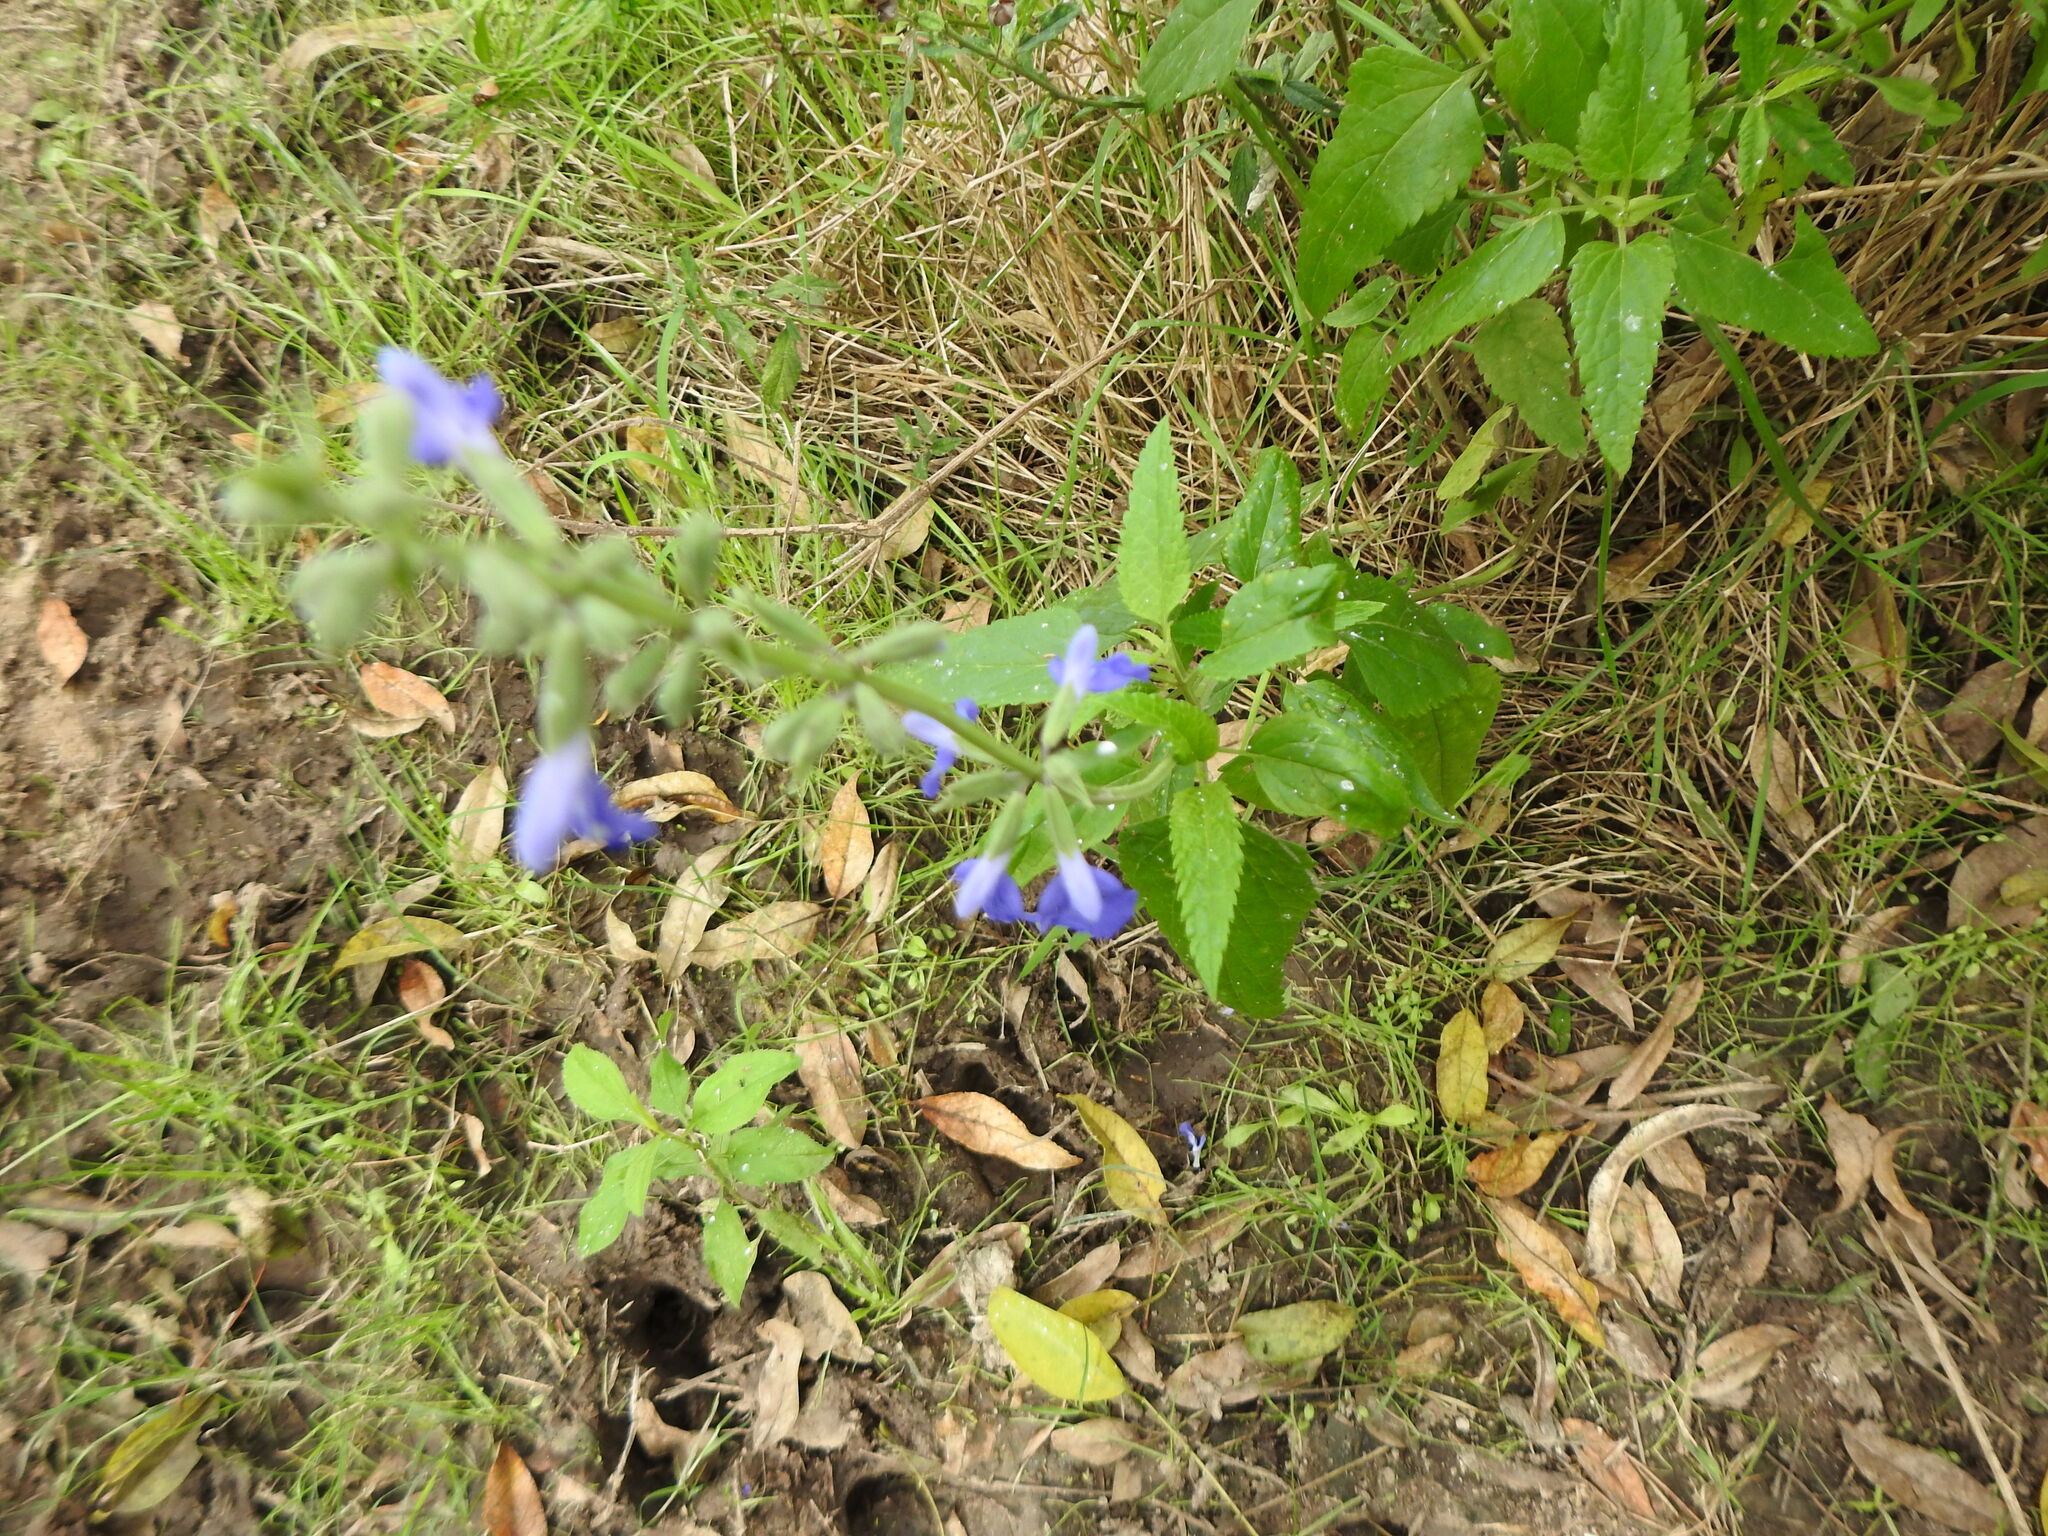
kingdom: Plantae
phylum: Tracheophyta
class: Magnoliopsida
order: Lamiales
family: Lamiaceae
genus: Salvia
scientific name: Salvia pallida
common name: Pale sage
